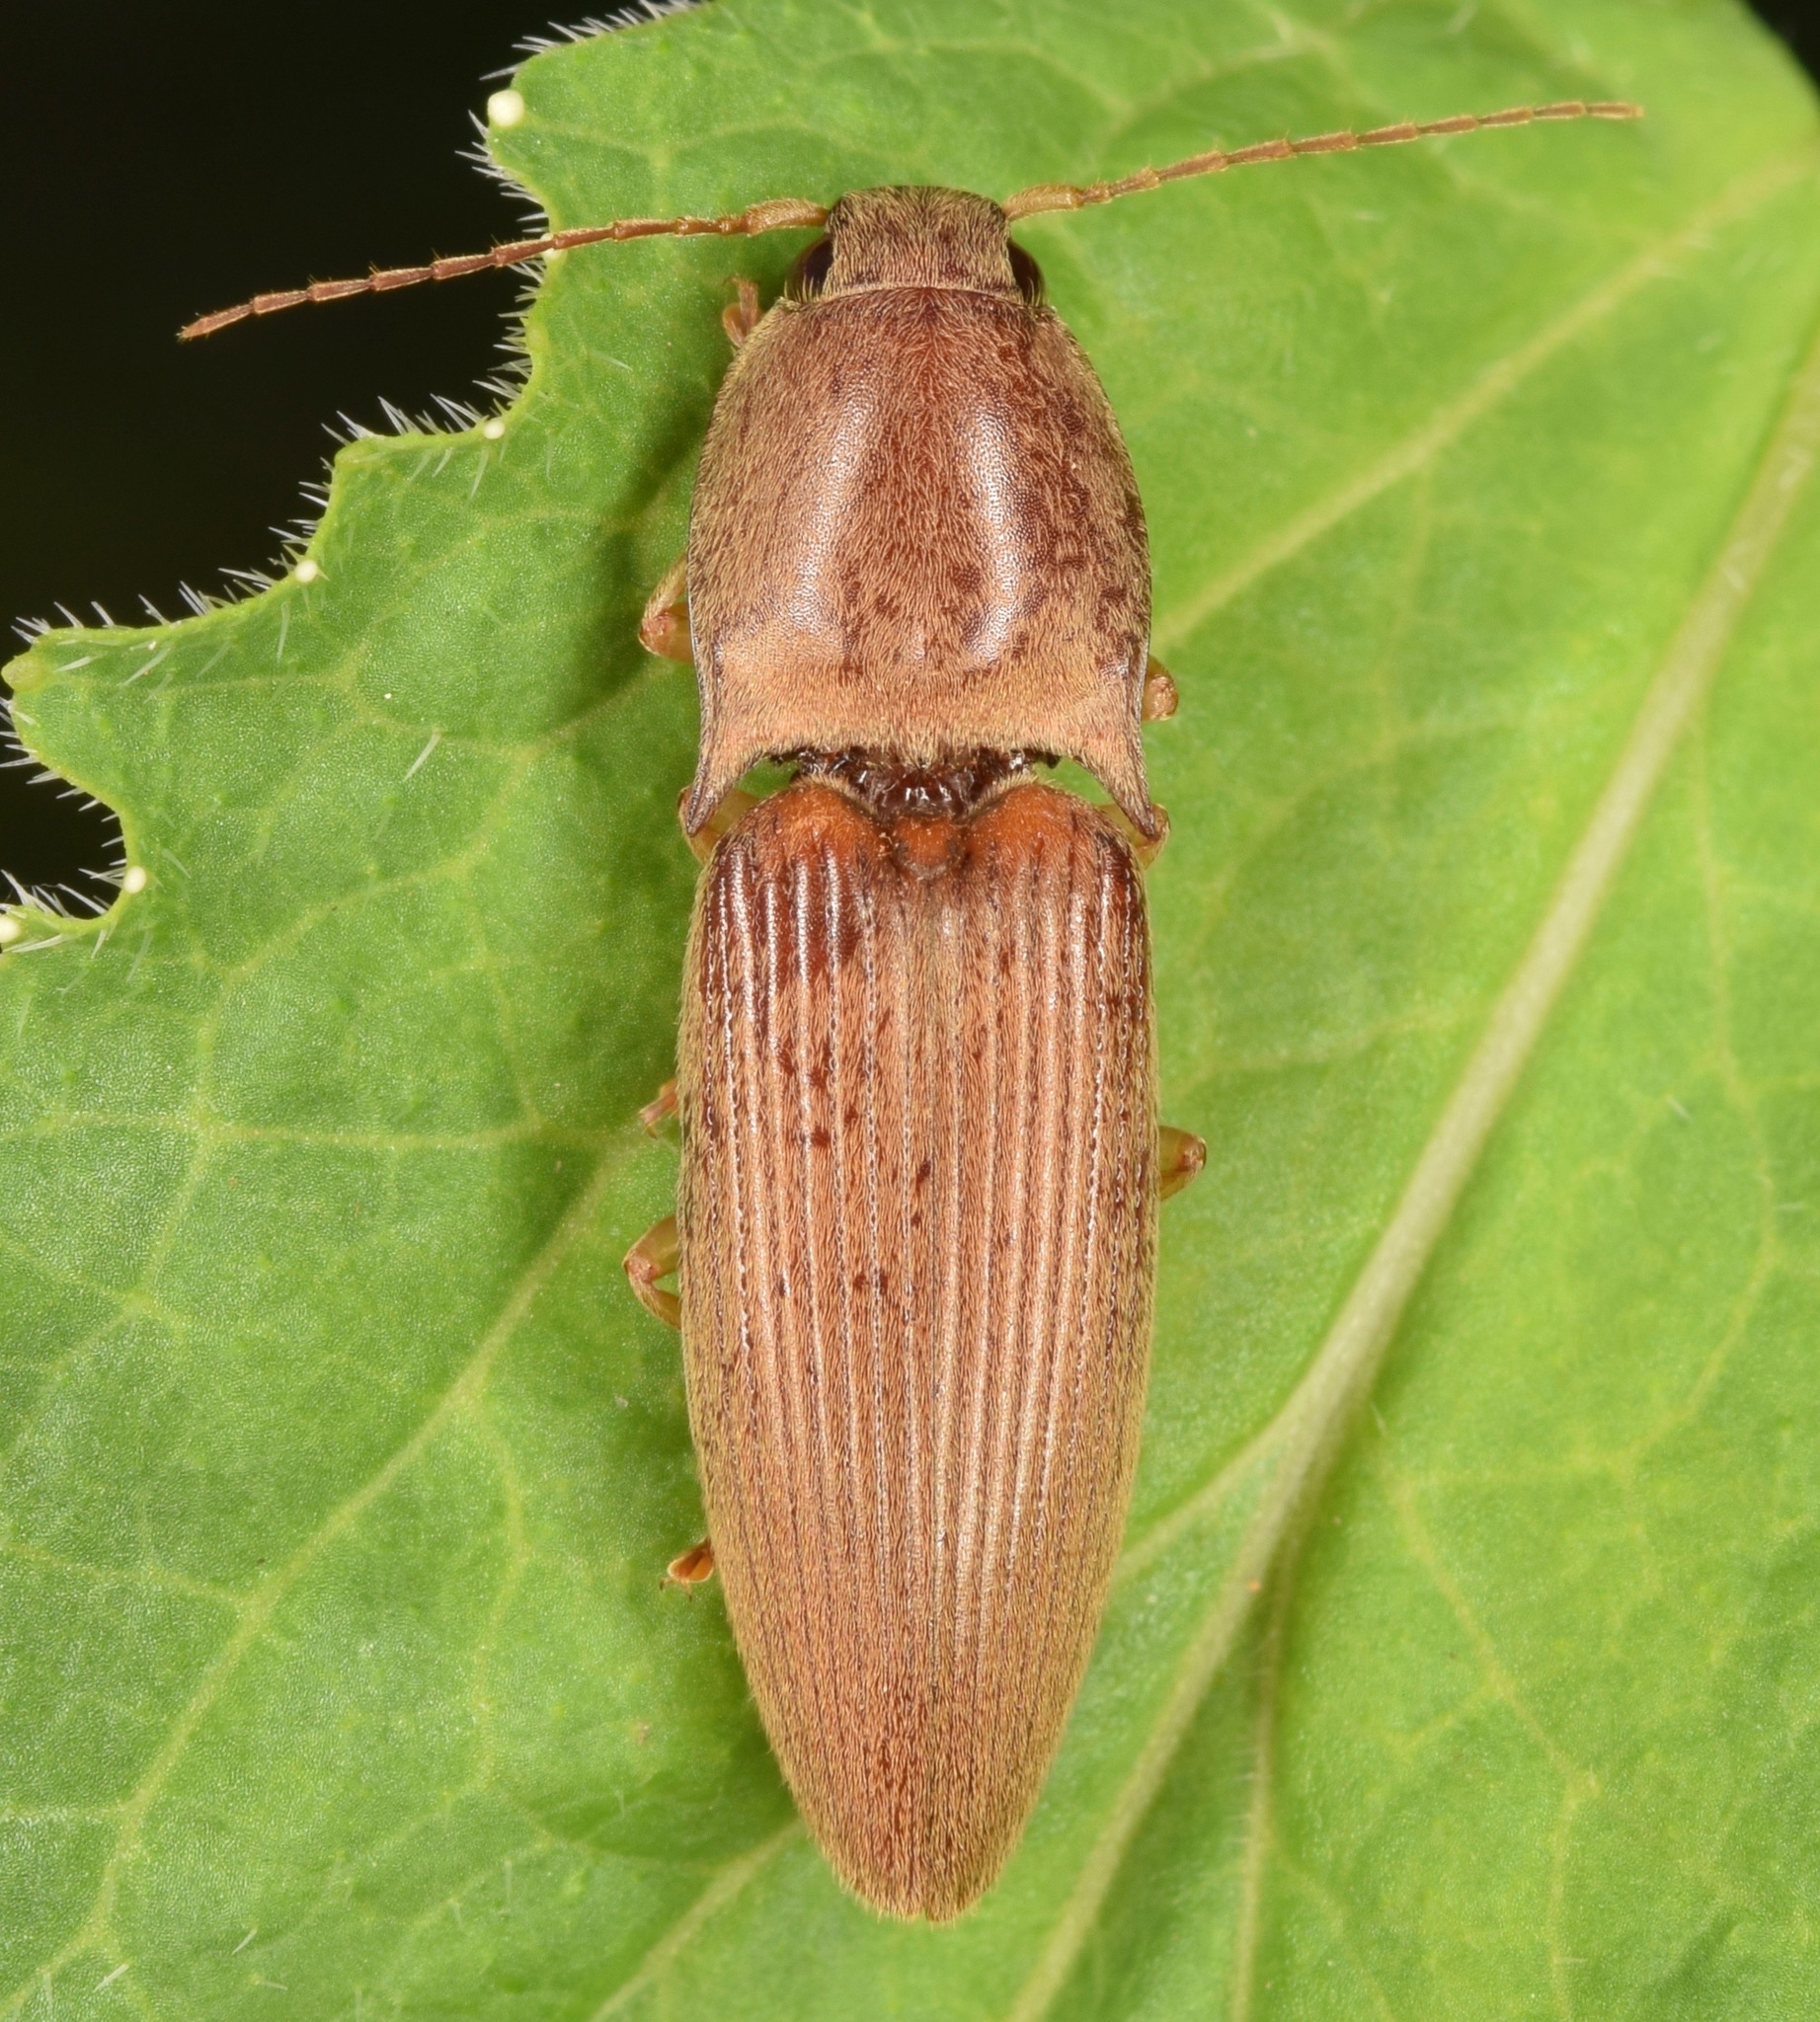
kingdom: Animalia
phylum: Arthropoda
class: Insecta
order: Coleoptera
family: Elateridae
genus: Monocrepidius
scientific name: Monocrepidius lividus
